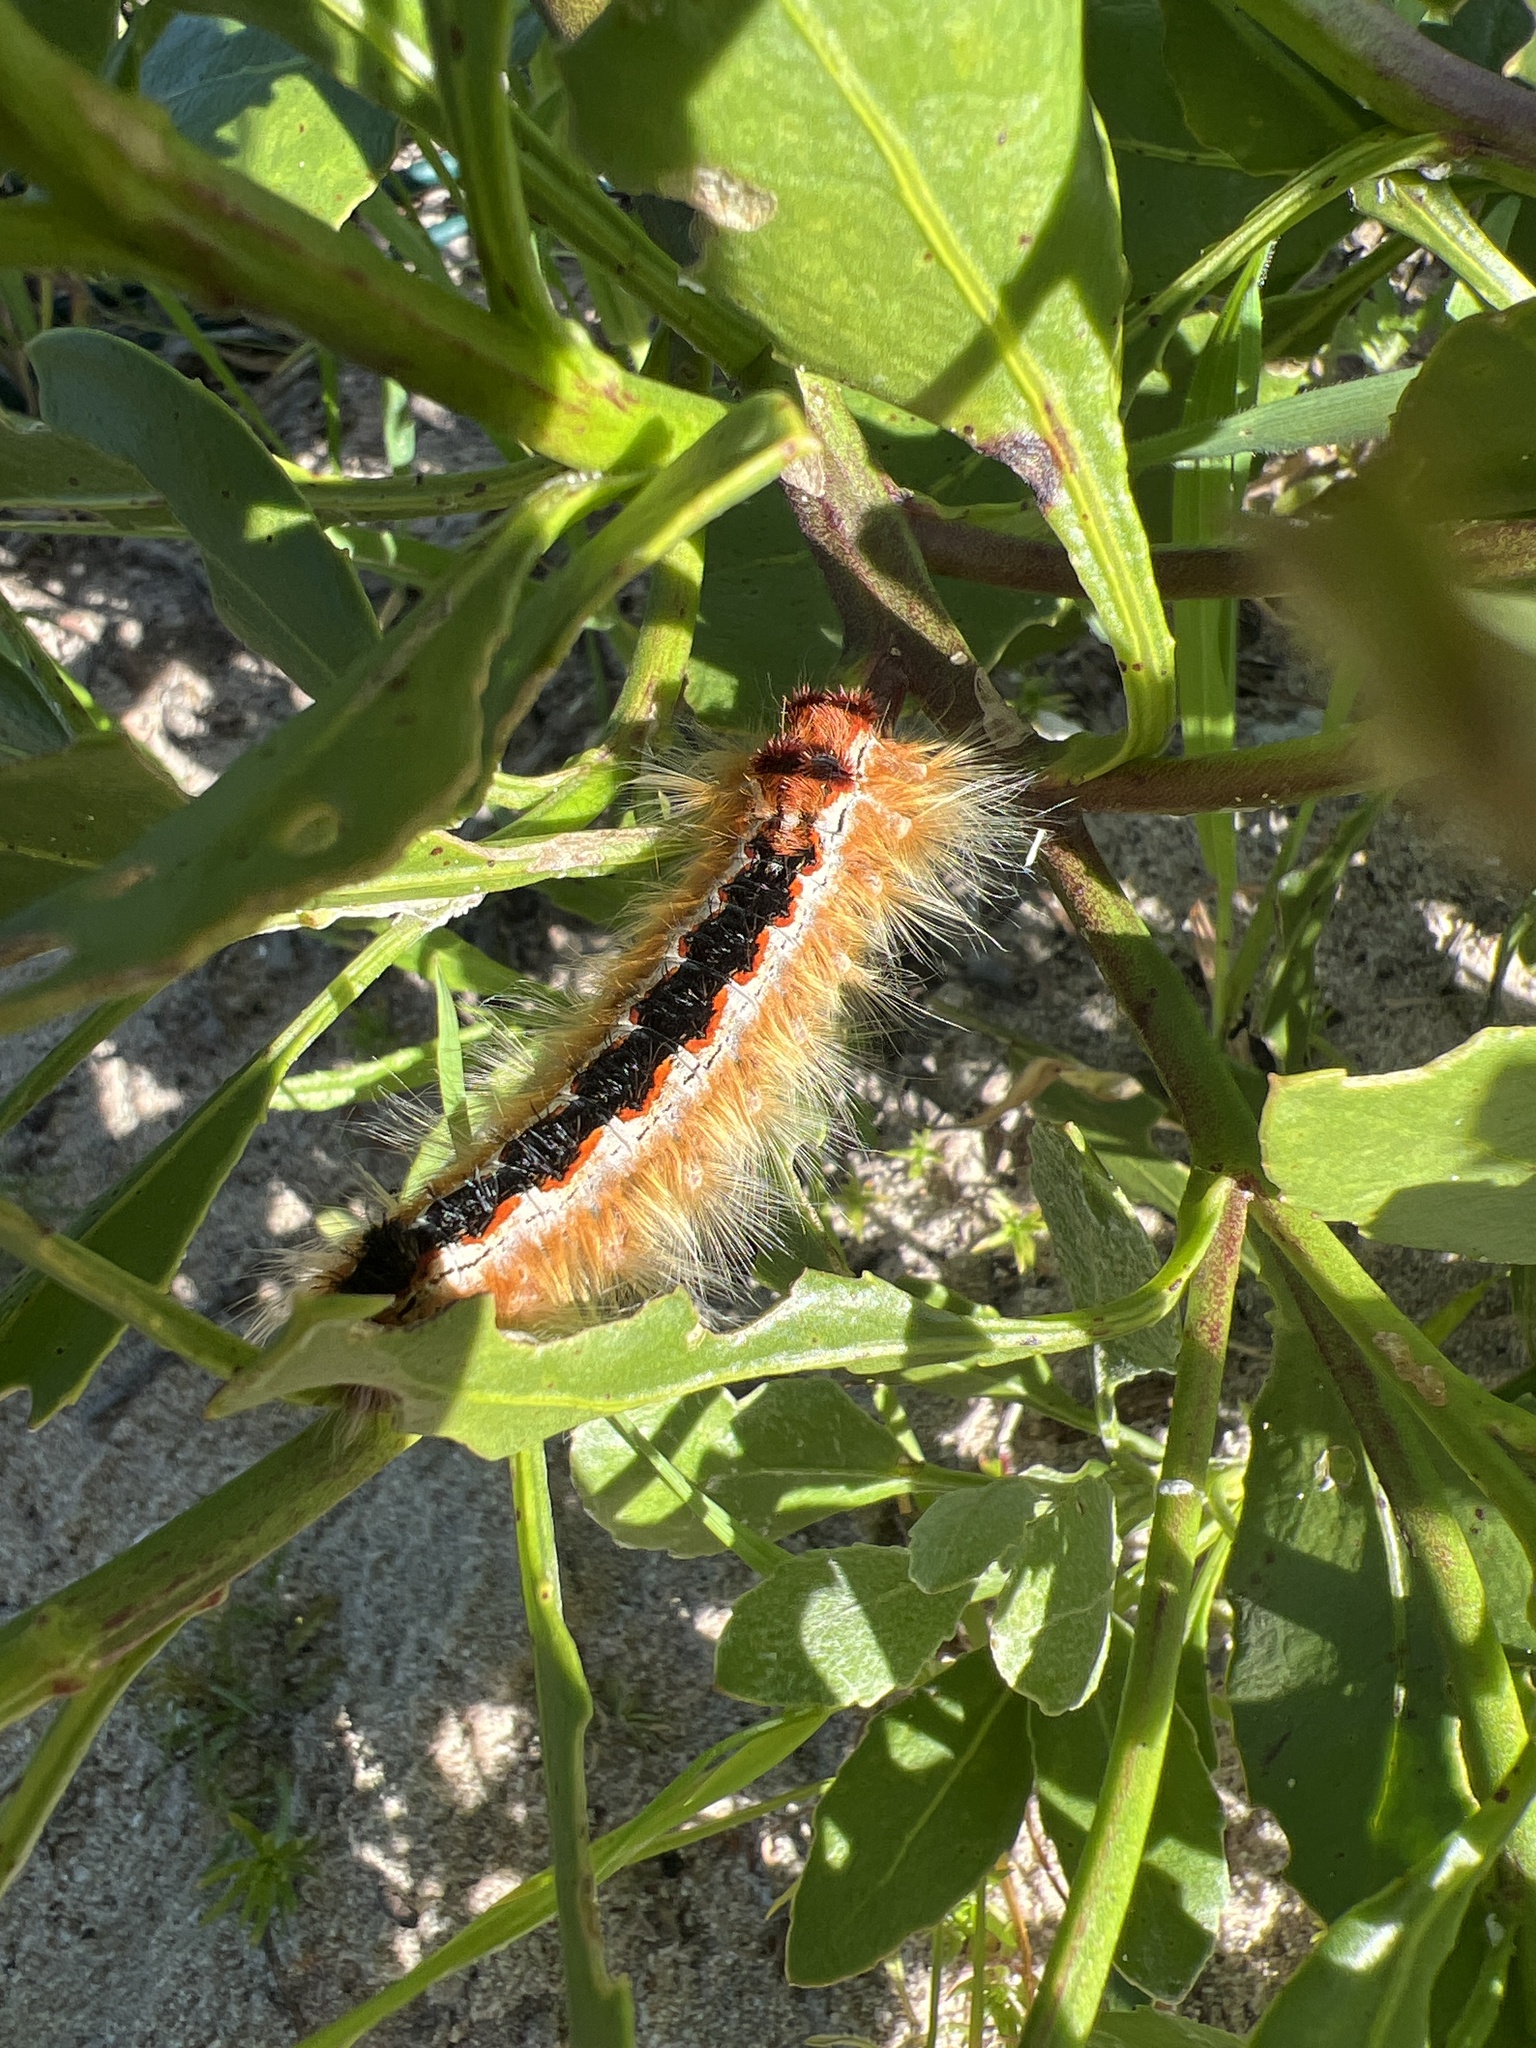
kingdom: Animalia
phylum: Arthropoda
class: Insecta
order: Lepidoptera
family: Lasiocampidae
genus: Eutricha
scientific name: Eutricha capensis
